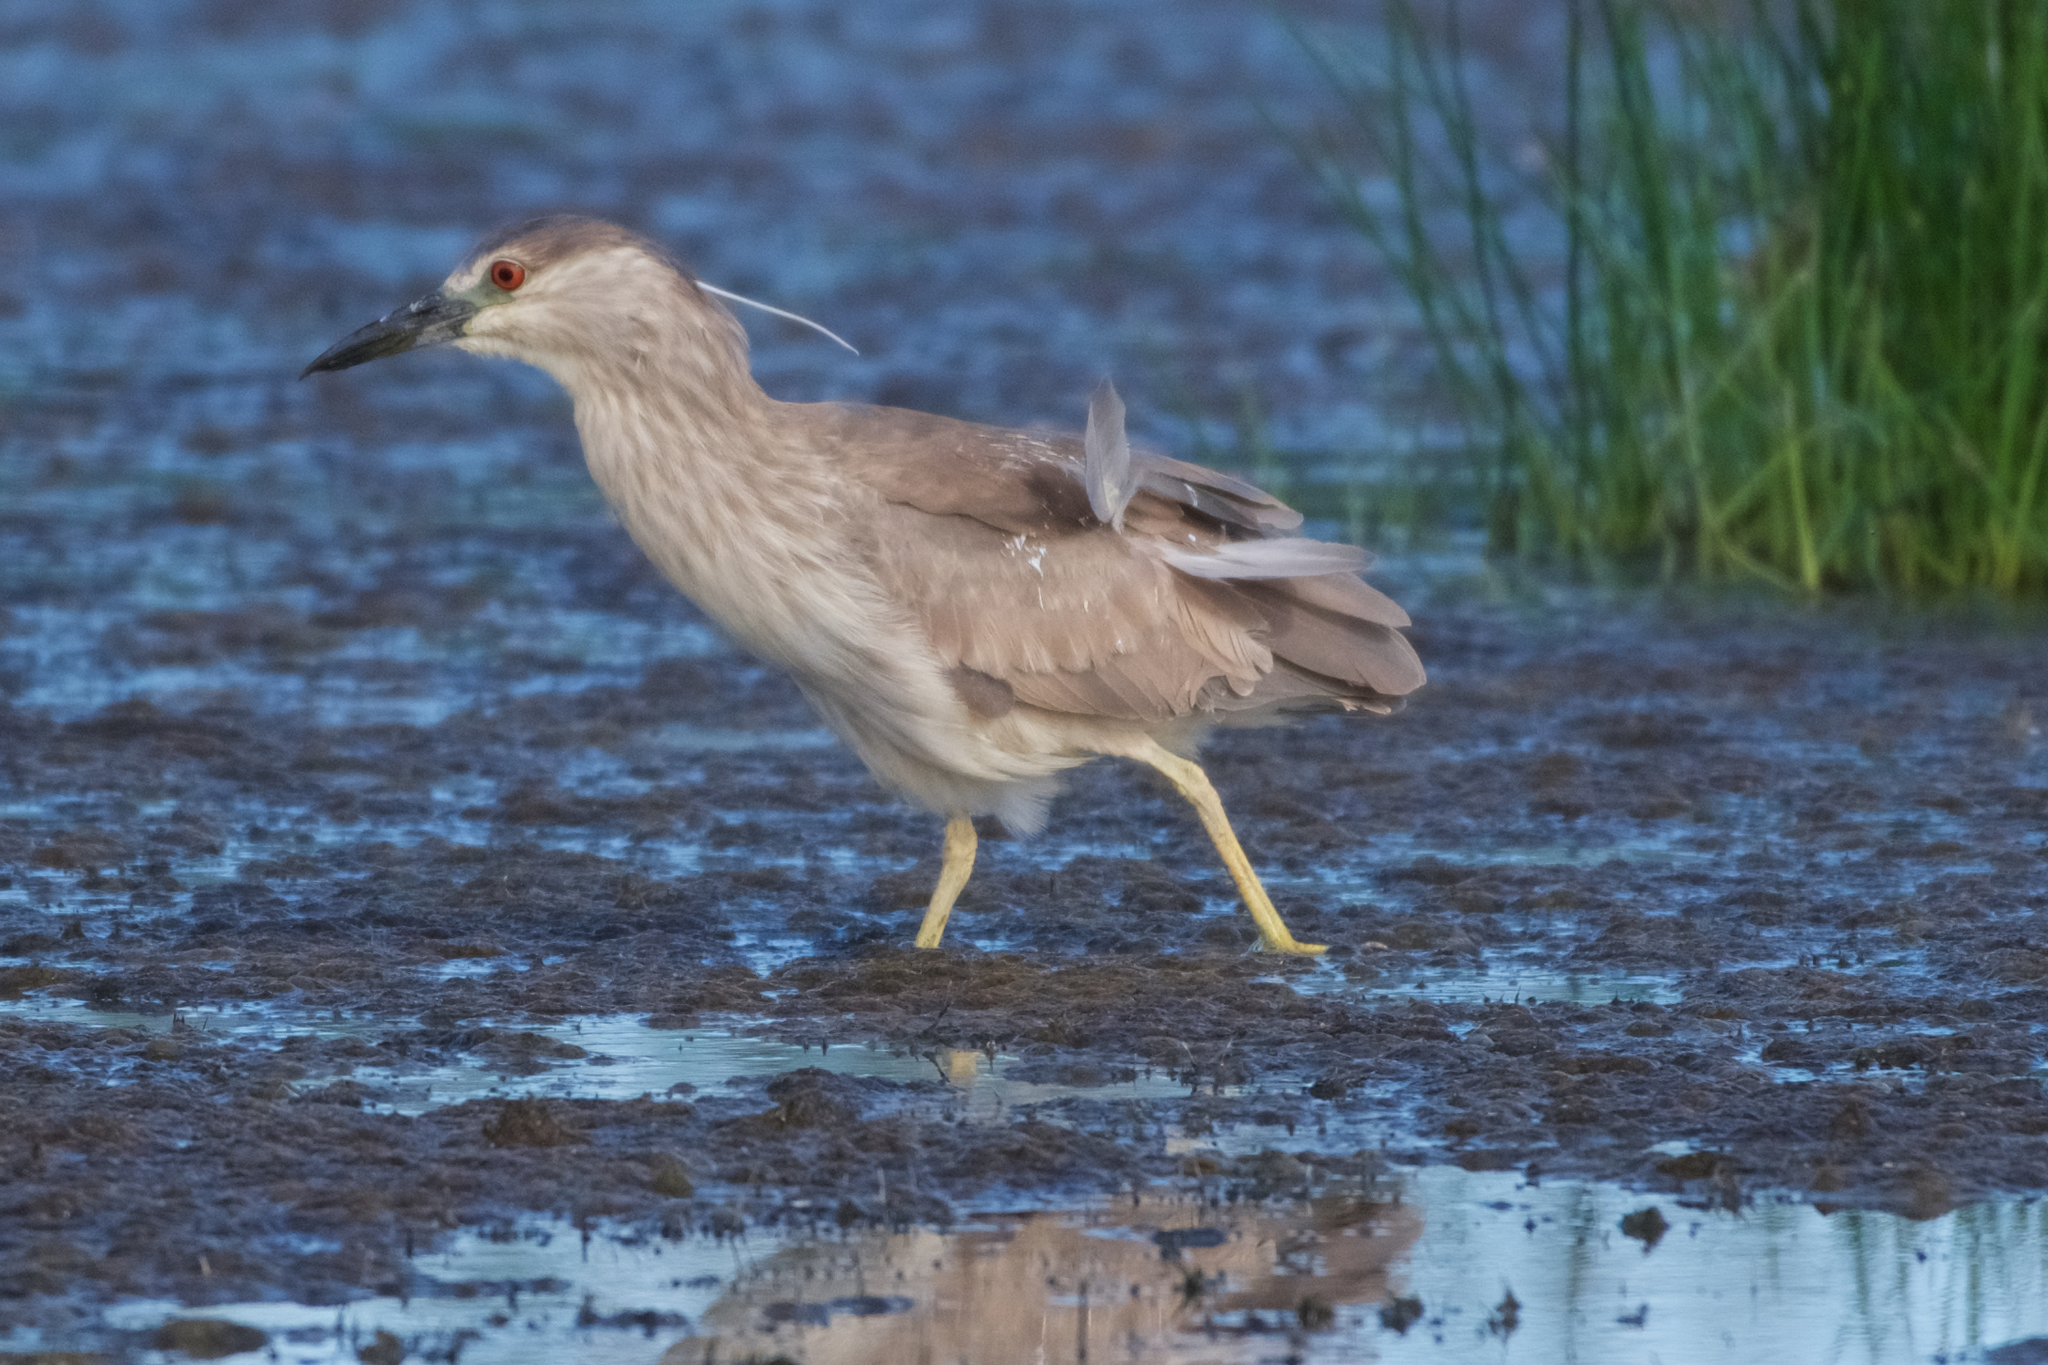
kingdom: Animalia
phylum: Chordata
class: Aves
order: Pelecaniformes
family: Ardeidae
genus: Nycticorax
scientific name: Nycticorax nycticorax
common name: Black-crowned night heron
